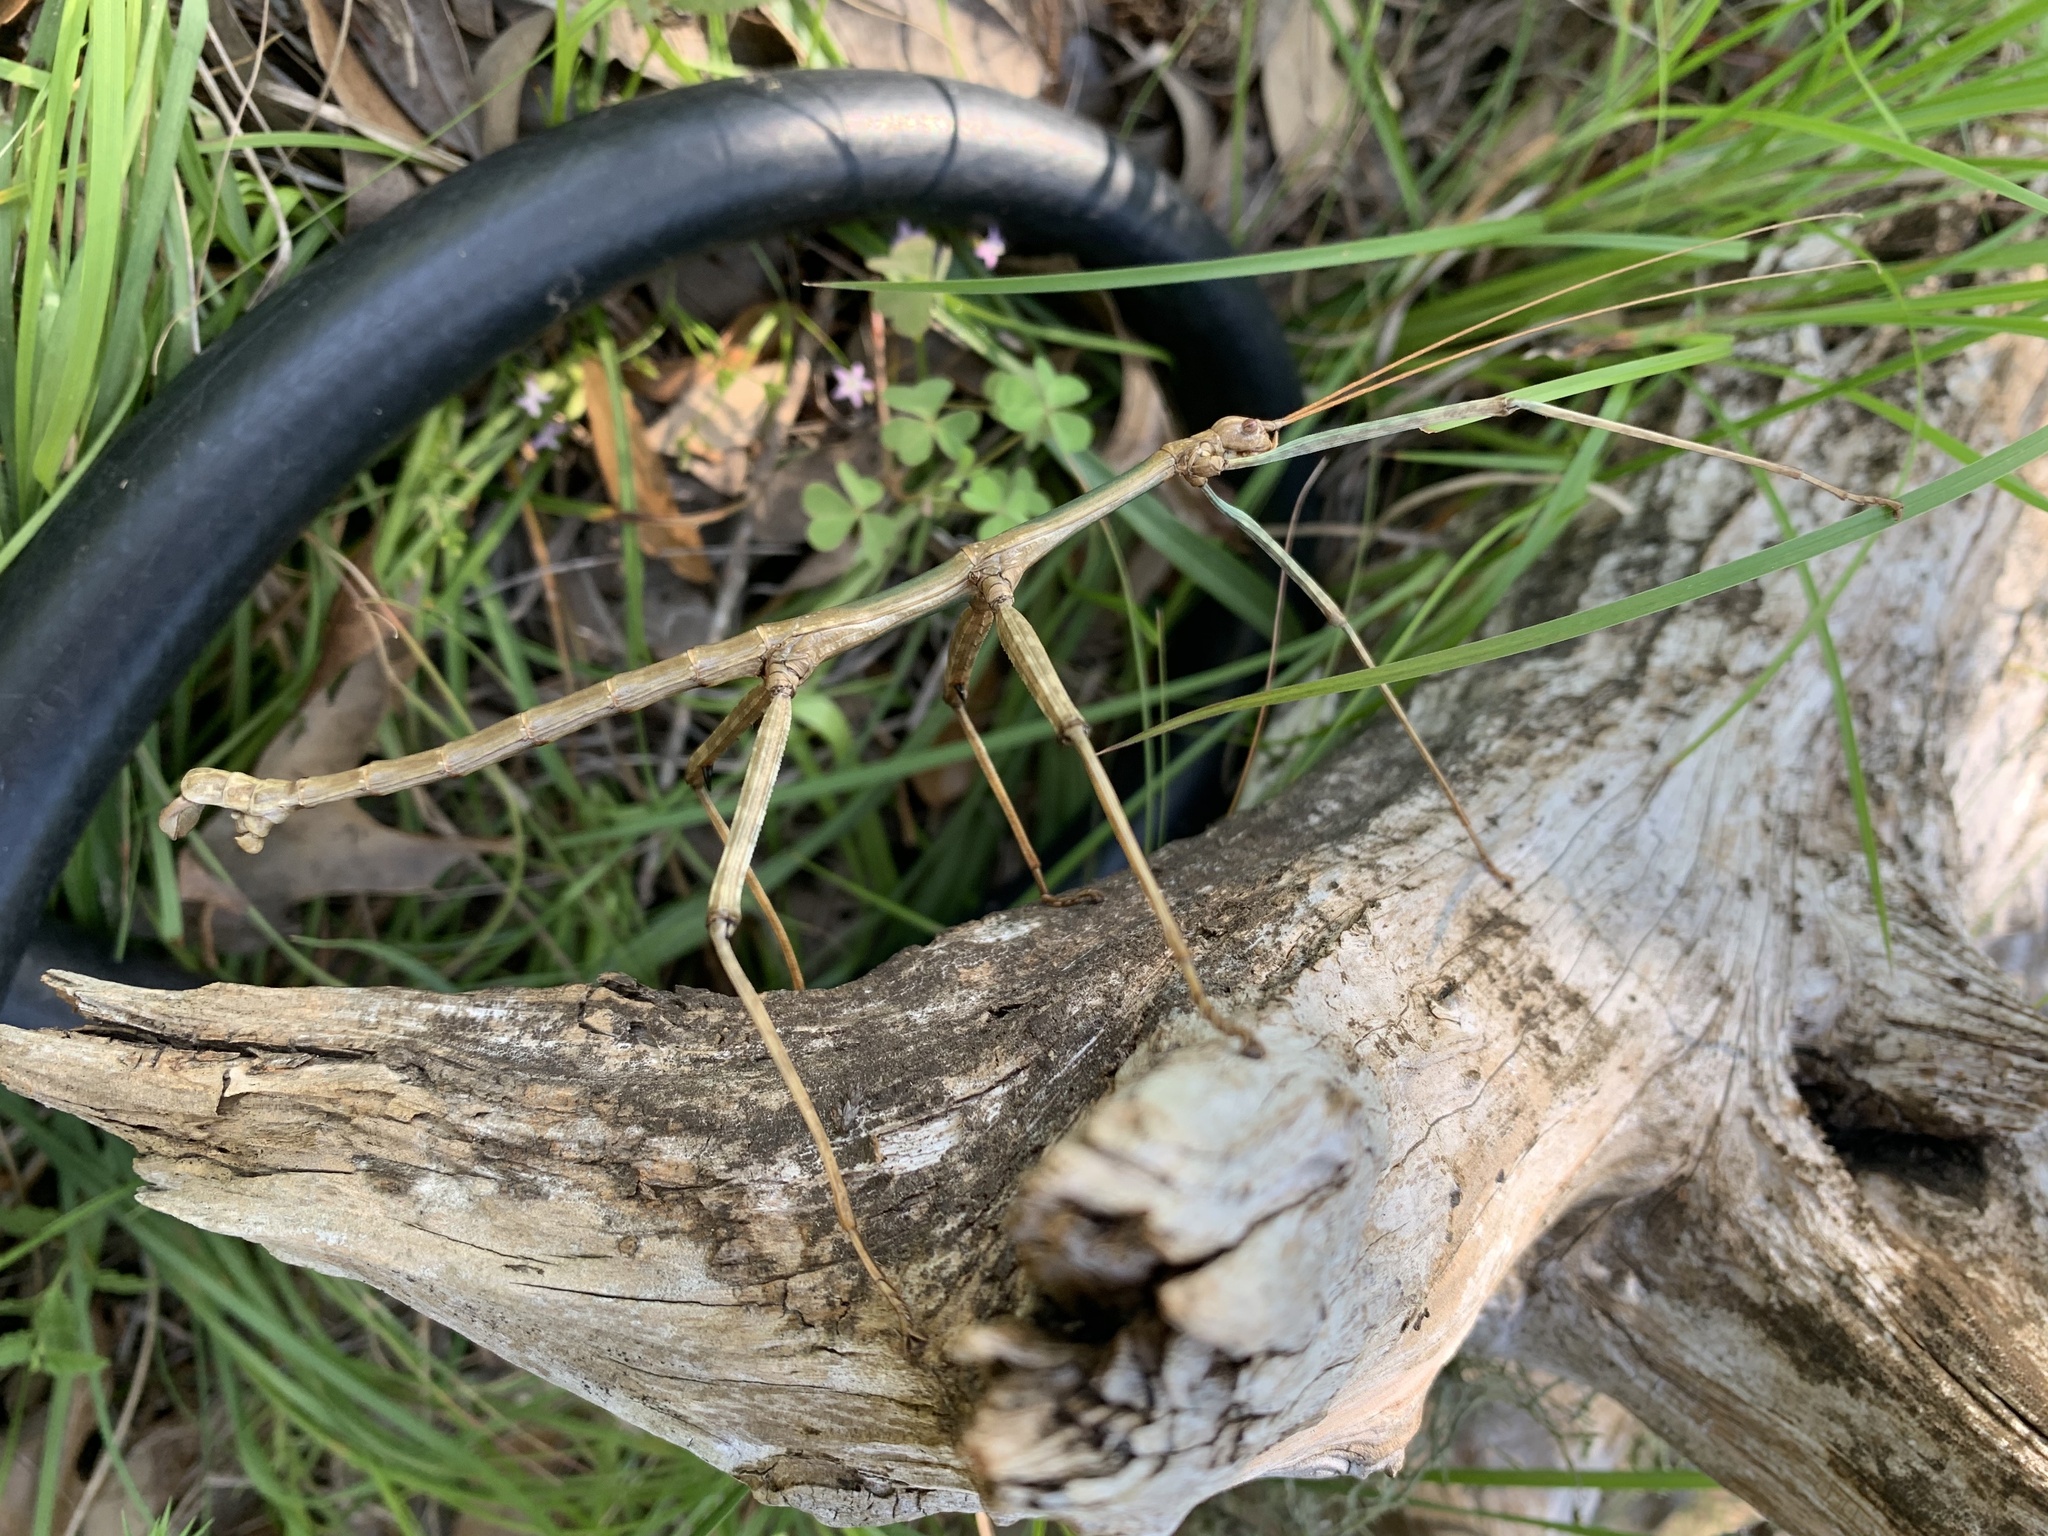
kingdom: Animalia
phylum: Arthropoda
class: Insecta
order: Phasmida
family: Diapheromeridae
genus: Megaphasma
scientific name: Megaphasma denticrus
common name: Giant walkingstick
